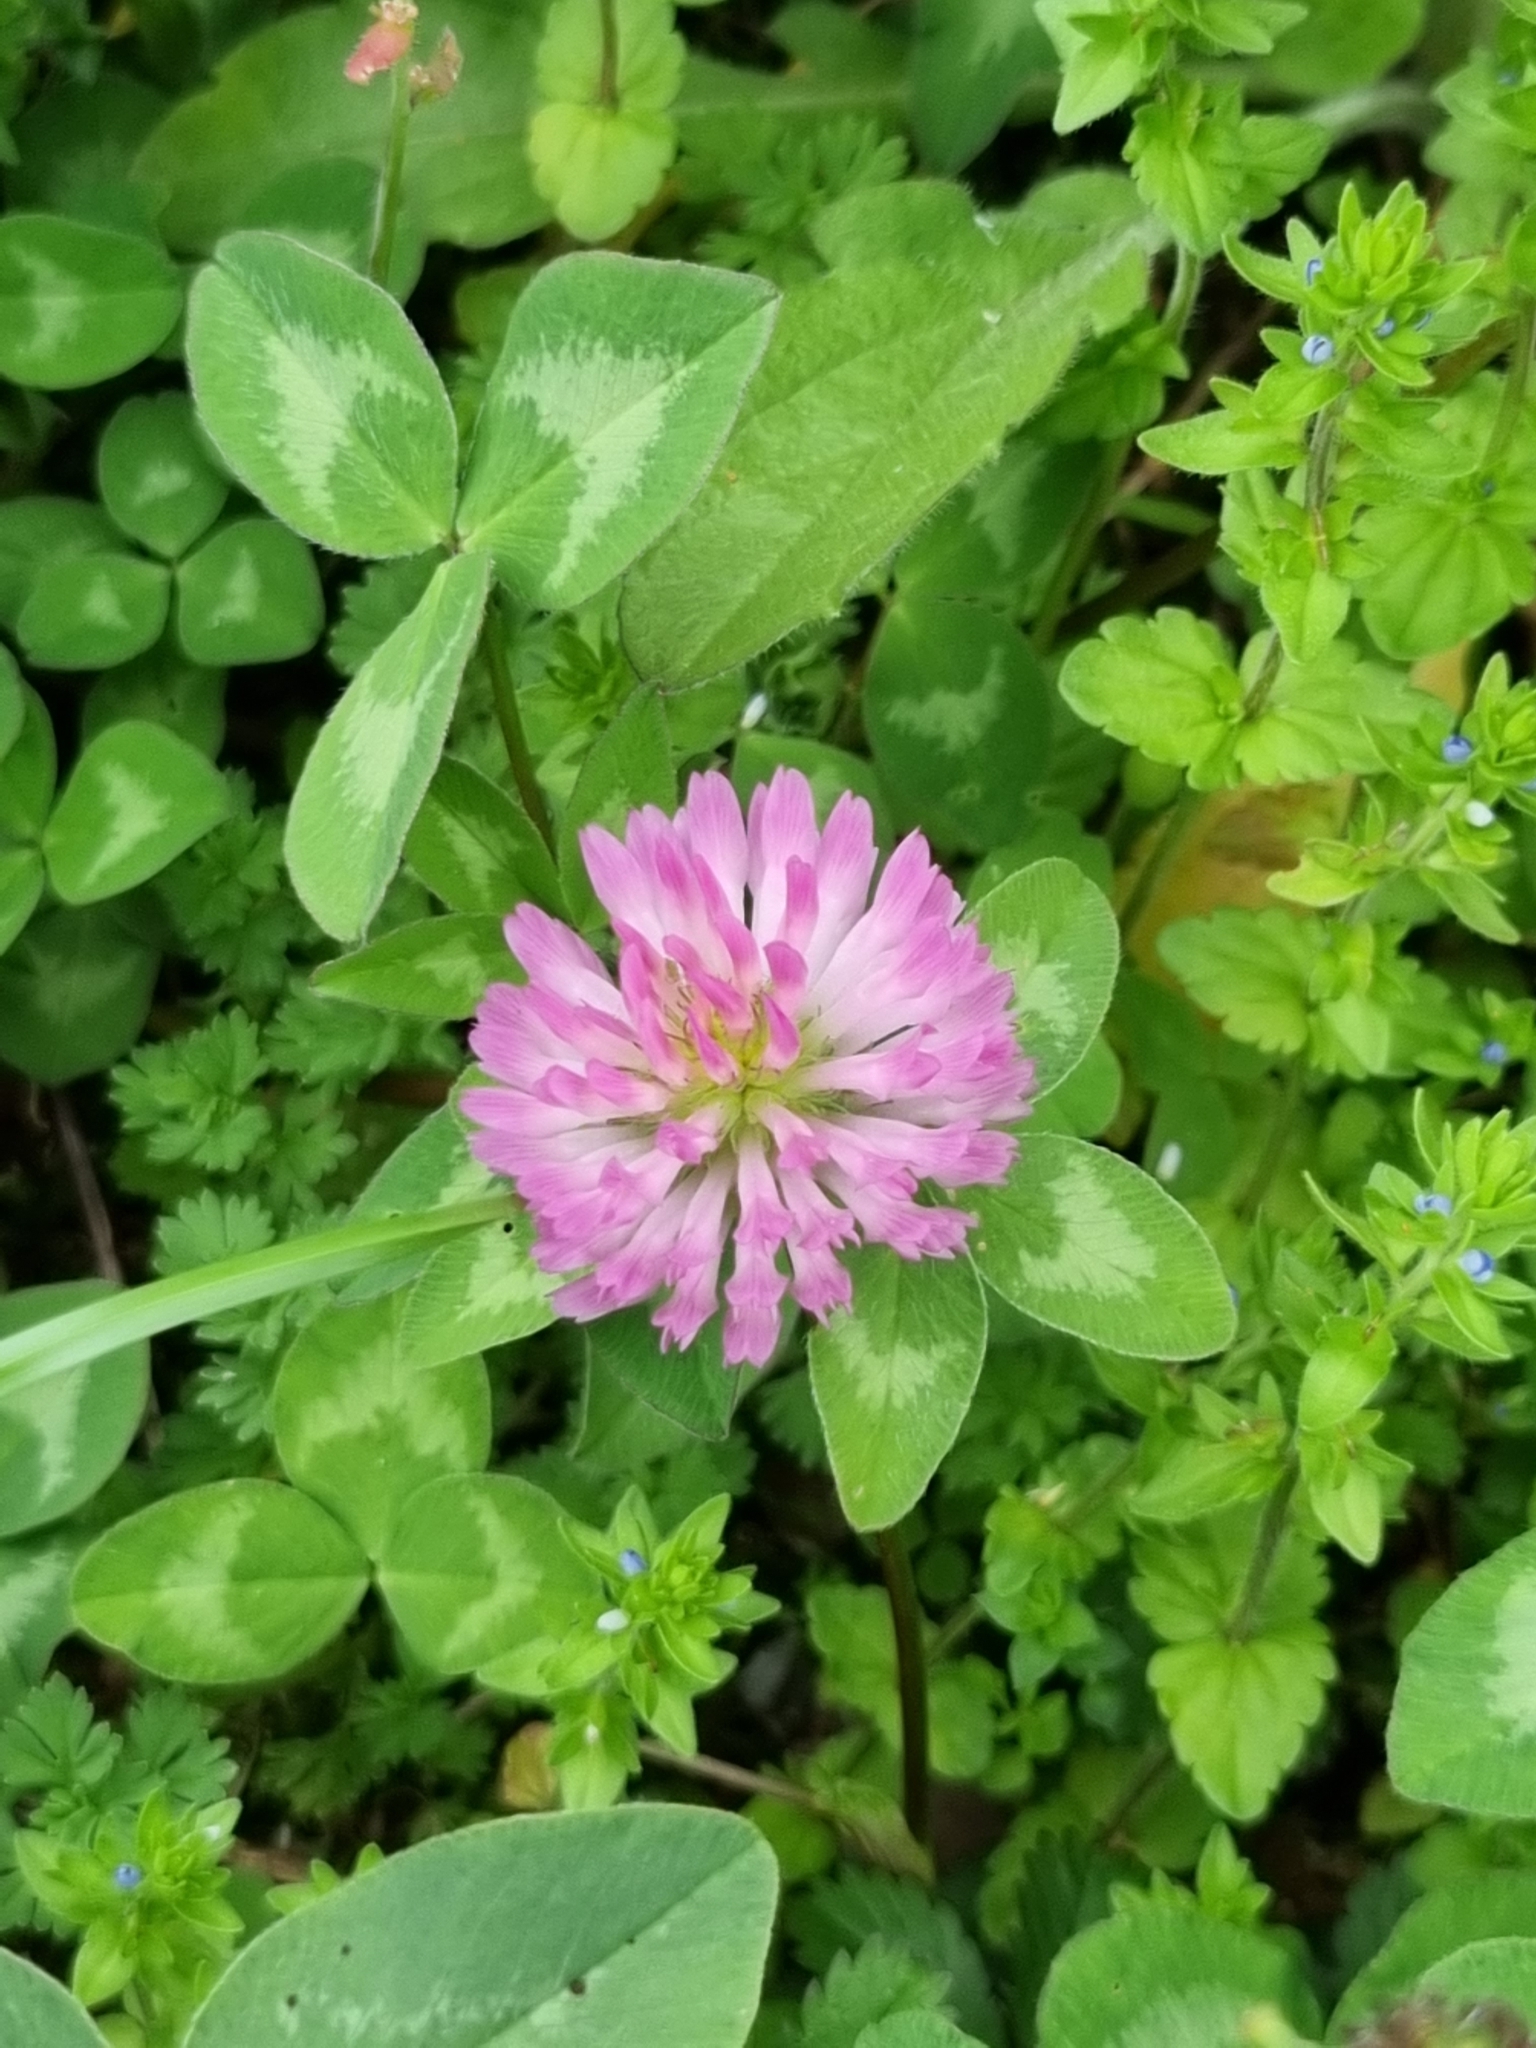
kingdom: Plantae
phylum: Tracheophyta
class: Magnoliopsida
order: Fabales
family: Fabaceae
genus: Trifolium
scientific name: Trifolium pratense
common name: Red clover
